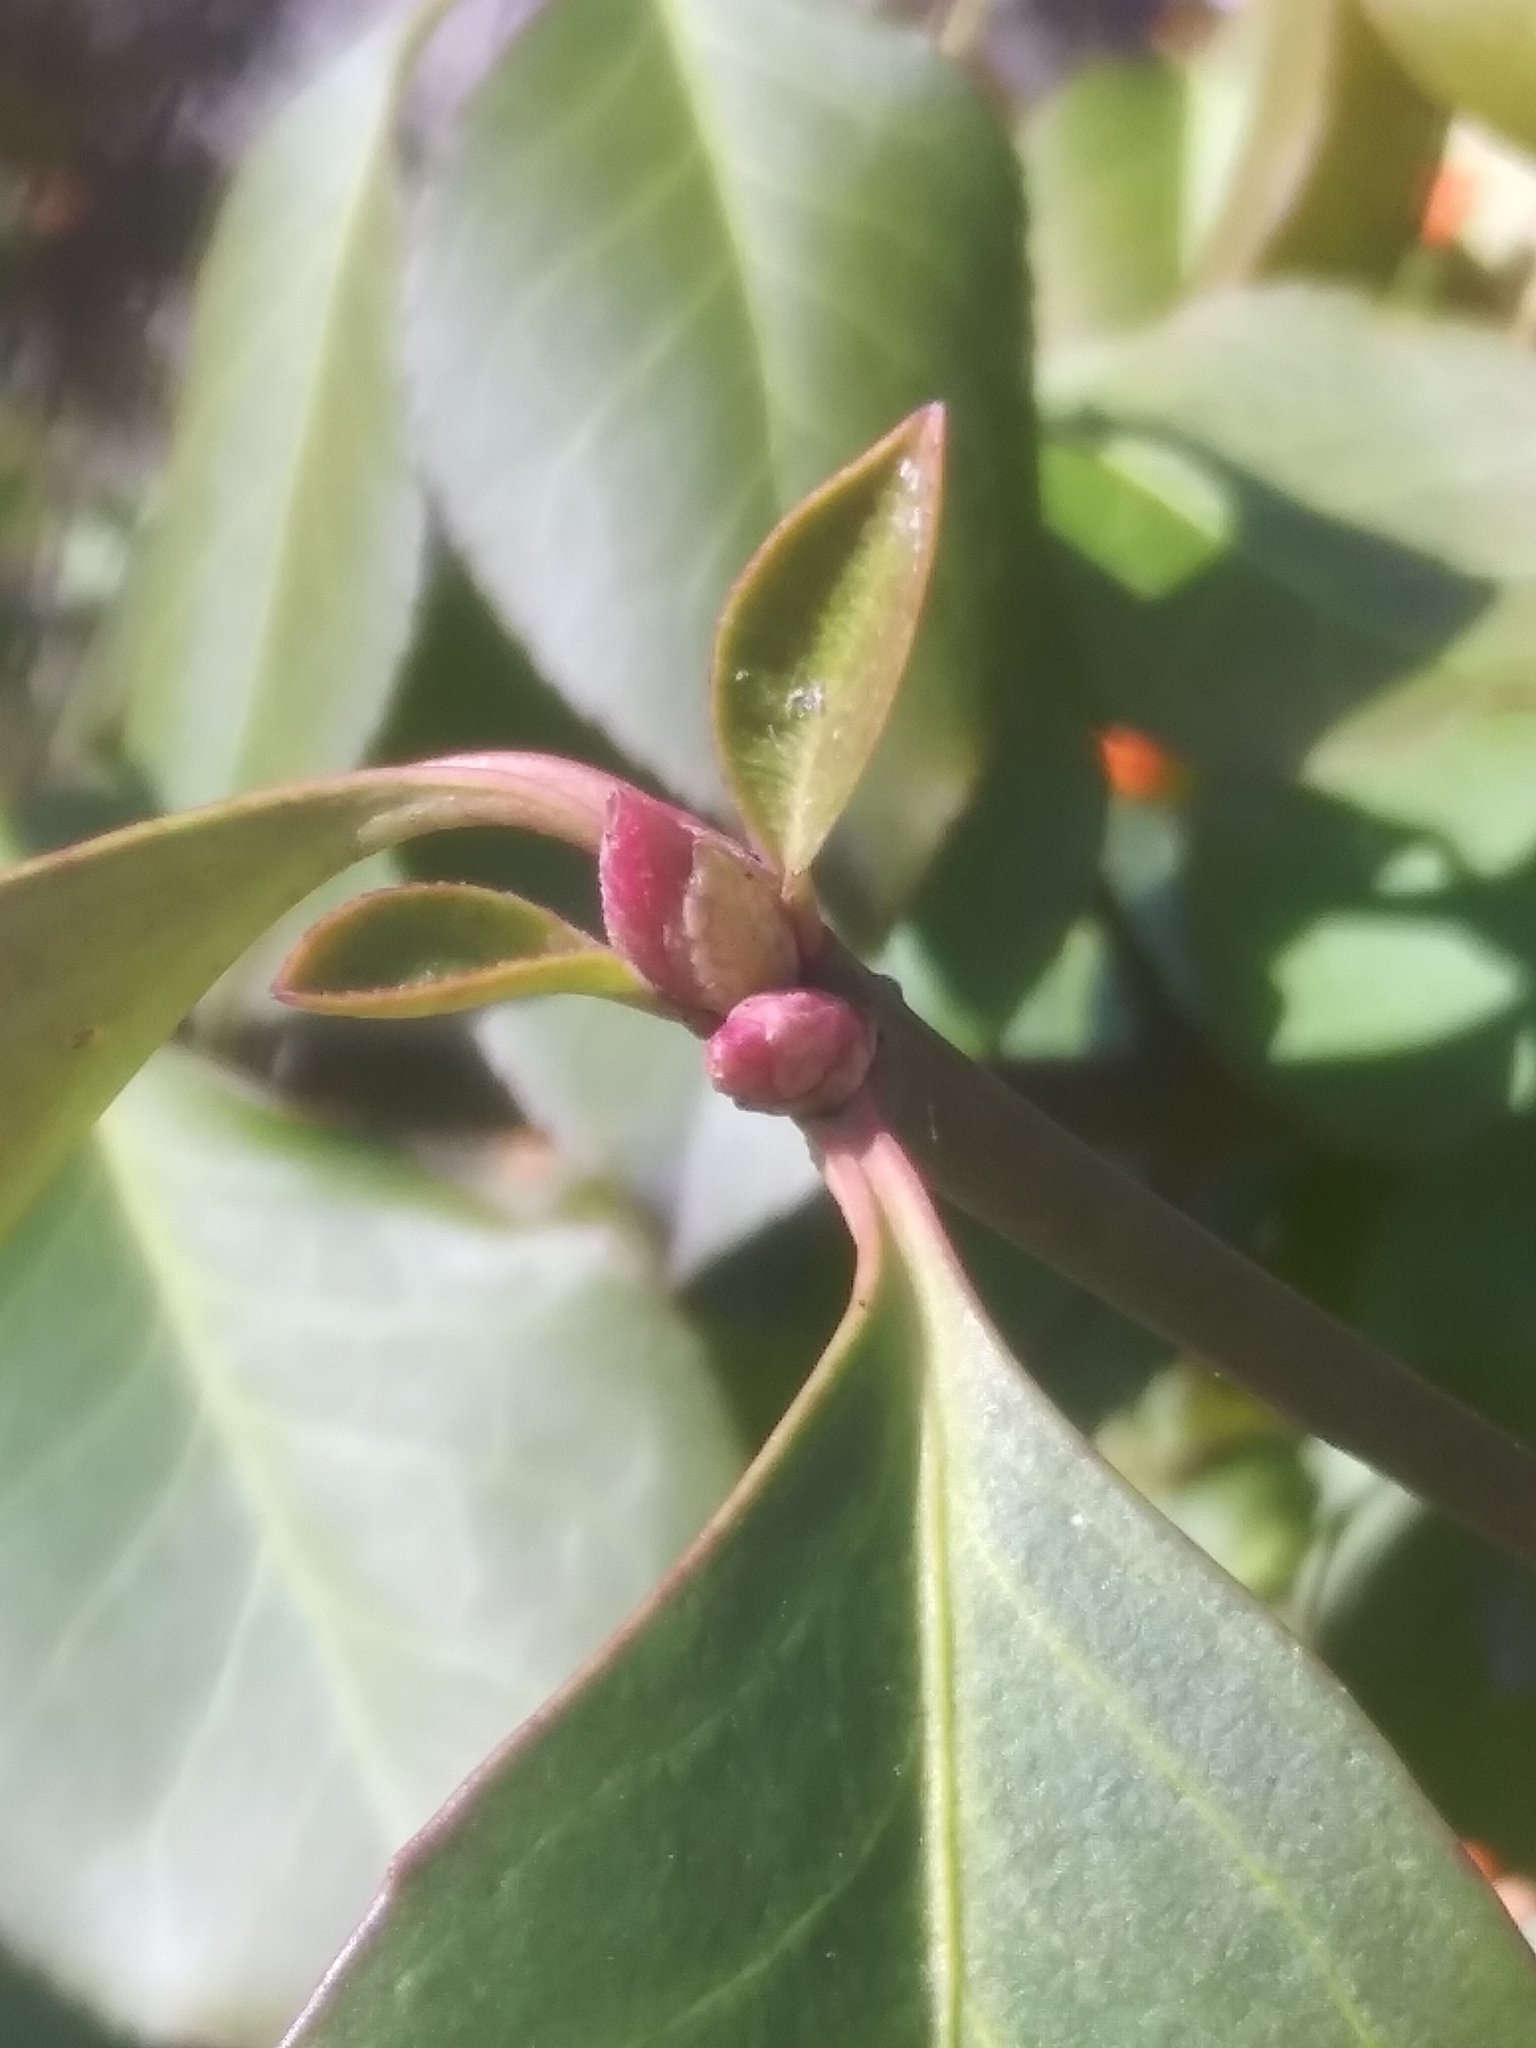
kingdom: Plantae
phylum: Tracheophyta
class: Magnoliopsida
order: Celastrales
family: Celastraceae
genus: Euonymus
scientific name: Euonymus fortunei
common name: Climbing euonymus
